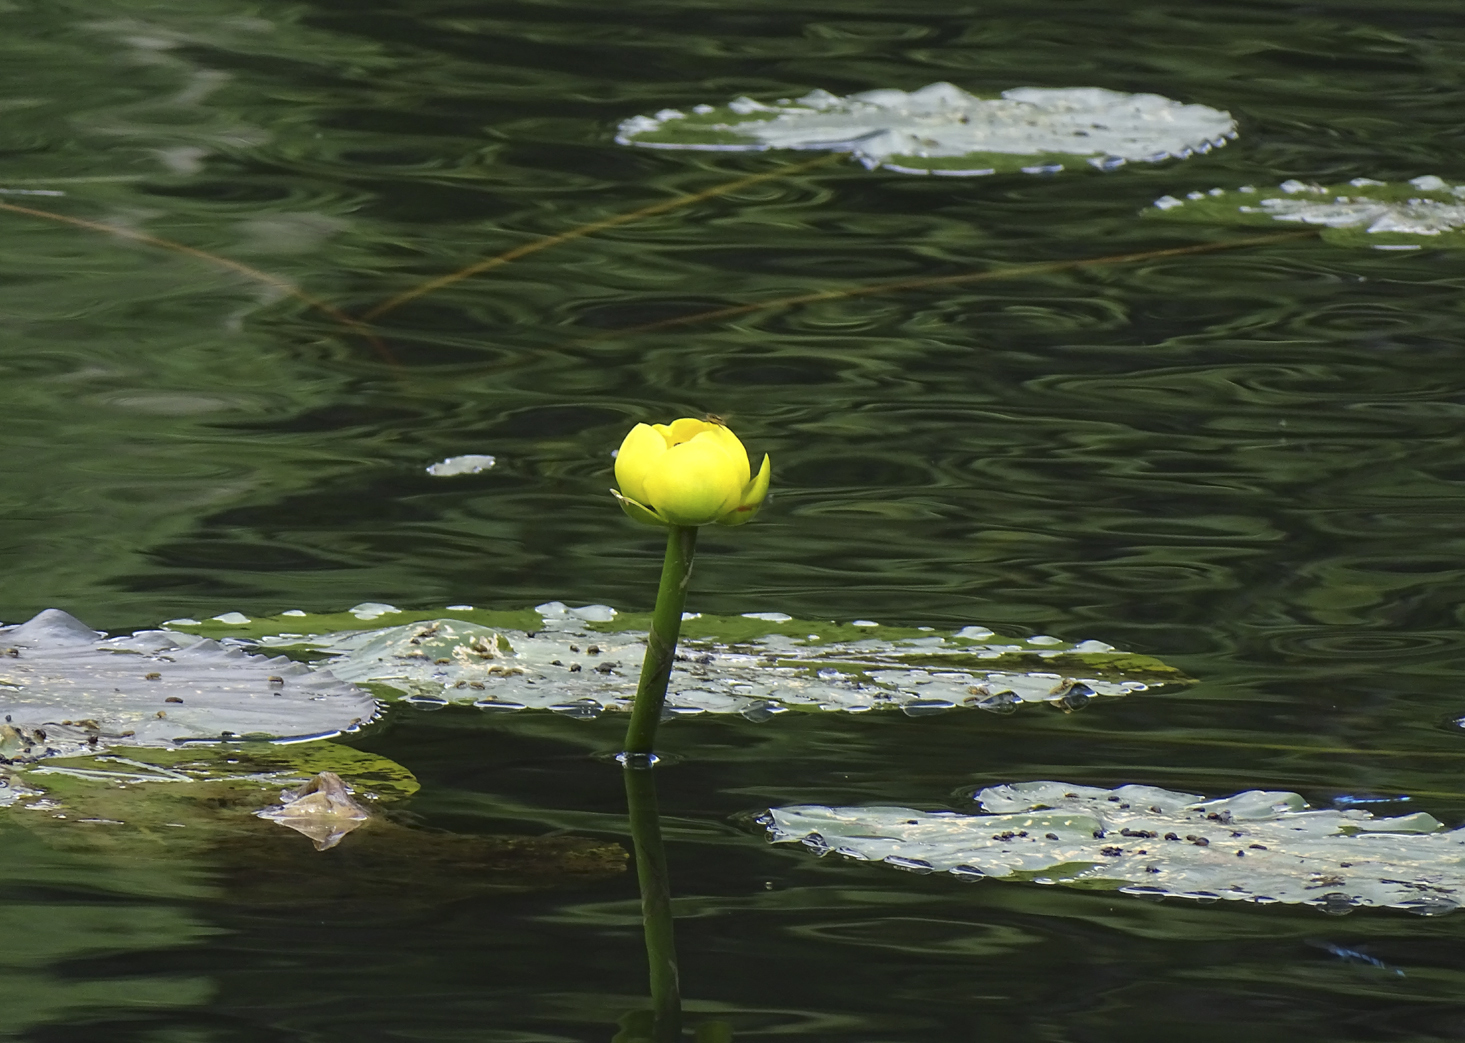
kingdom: Plantae
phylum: Tracheophyta
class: Magnoliopsida
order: Nymphaeales
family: Nymphaeaceae
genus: Nuphar
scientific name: Nuphar polysepala
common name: Rocky mountain cow-lily
